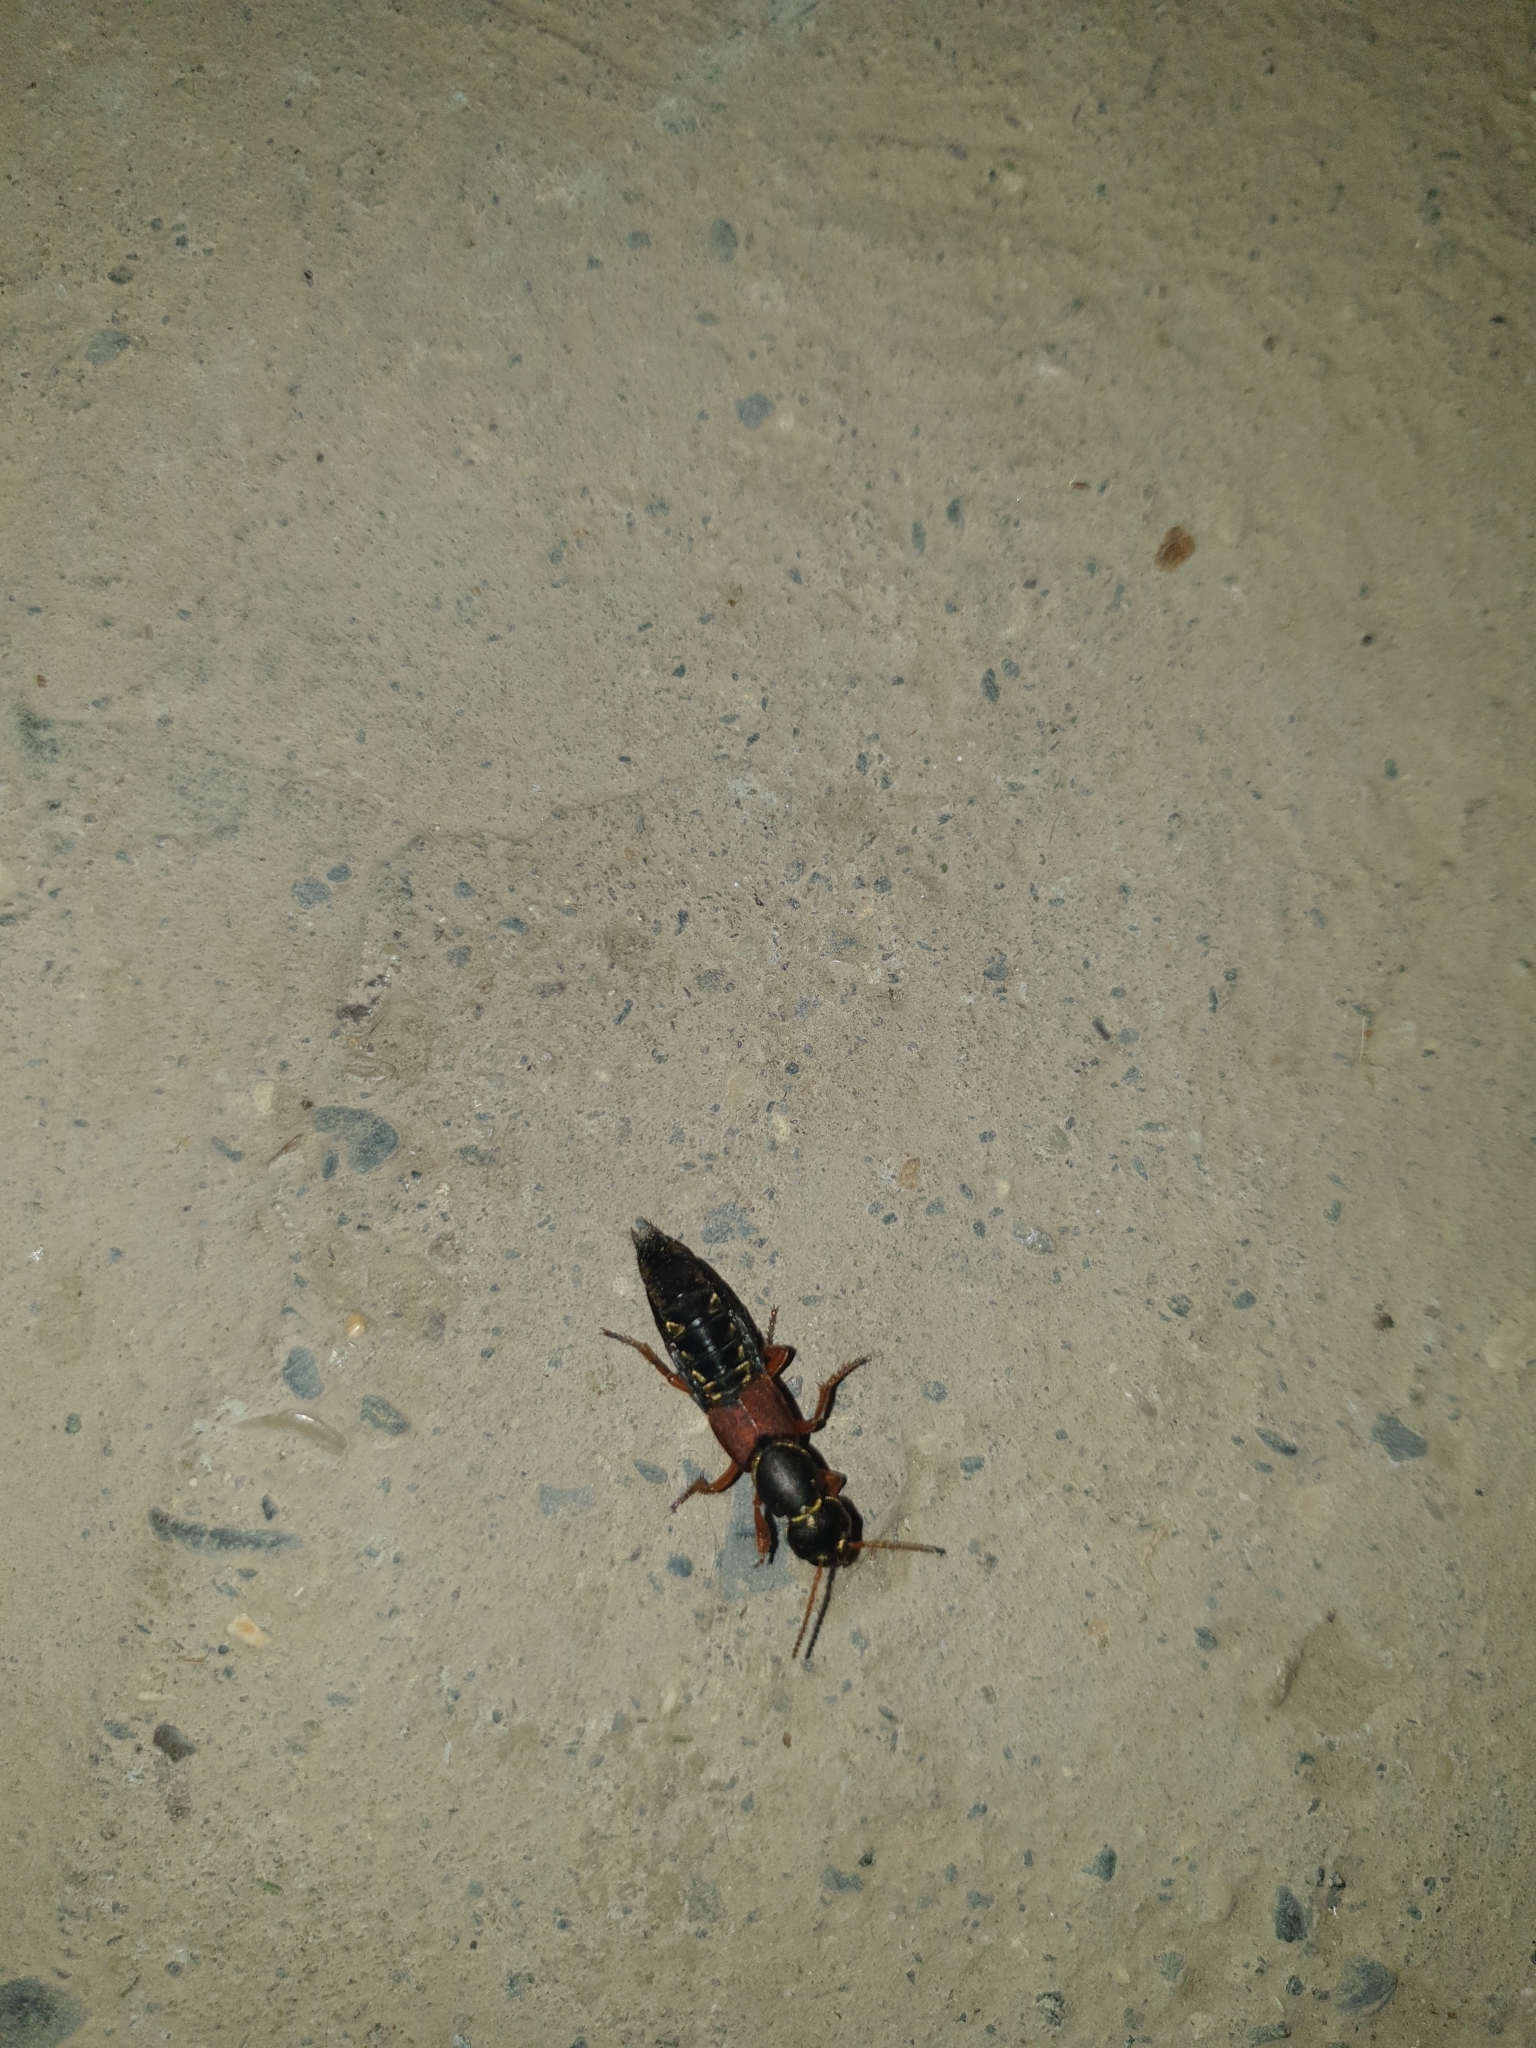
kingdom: Animalia
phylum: Arthropoda
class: Insecta
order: Coleoptera
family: Staphylinidae
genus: Staphylinus
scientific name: Staphylinus caesareus
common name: Staph beetle
